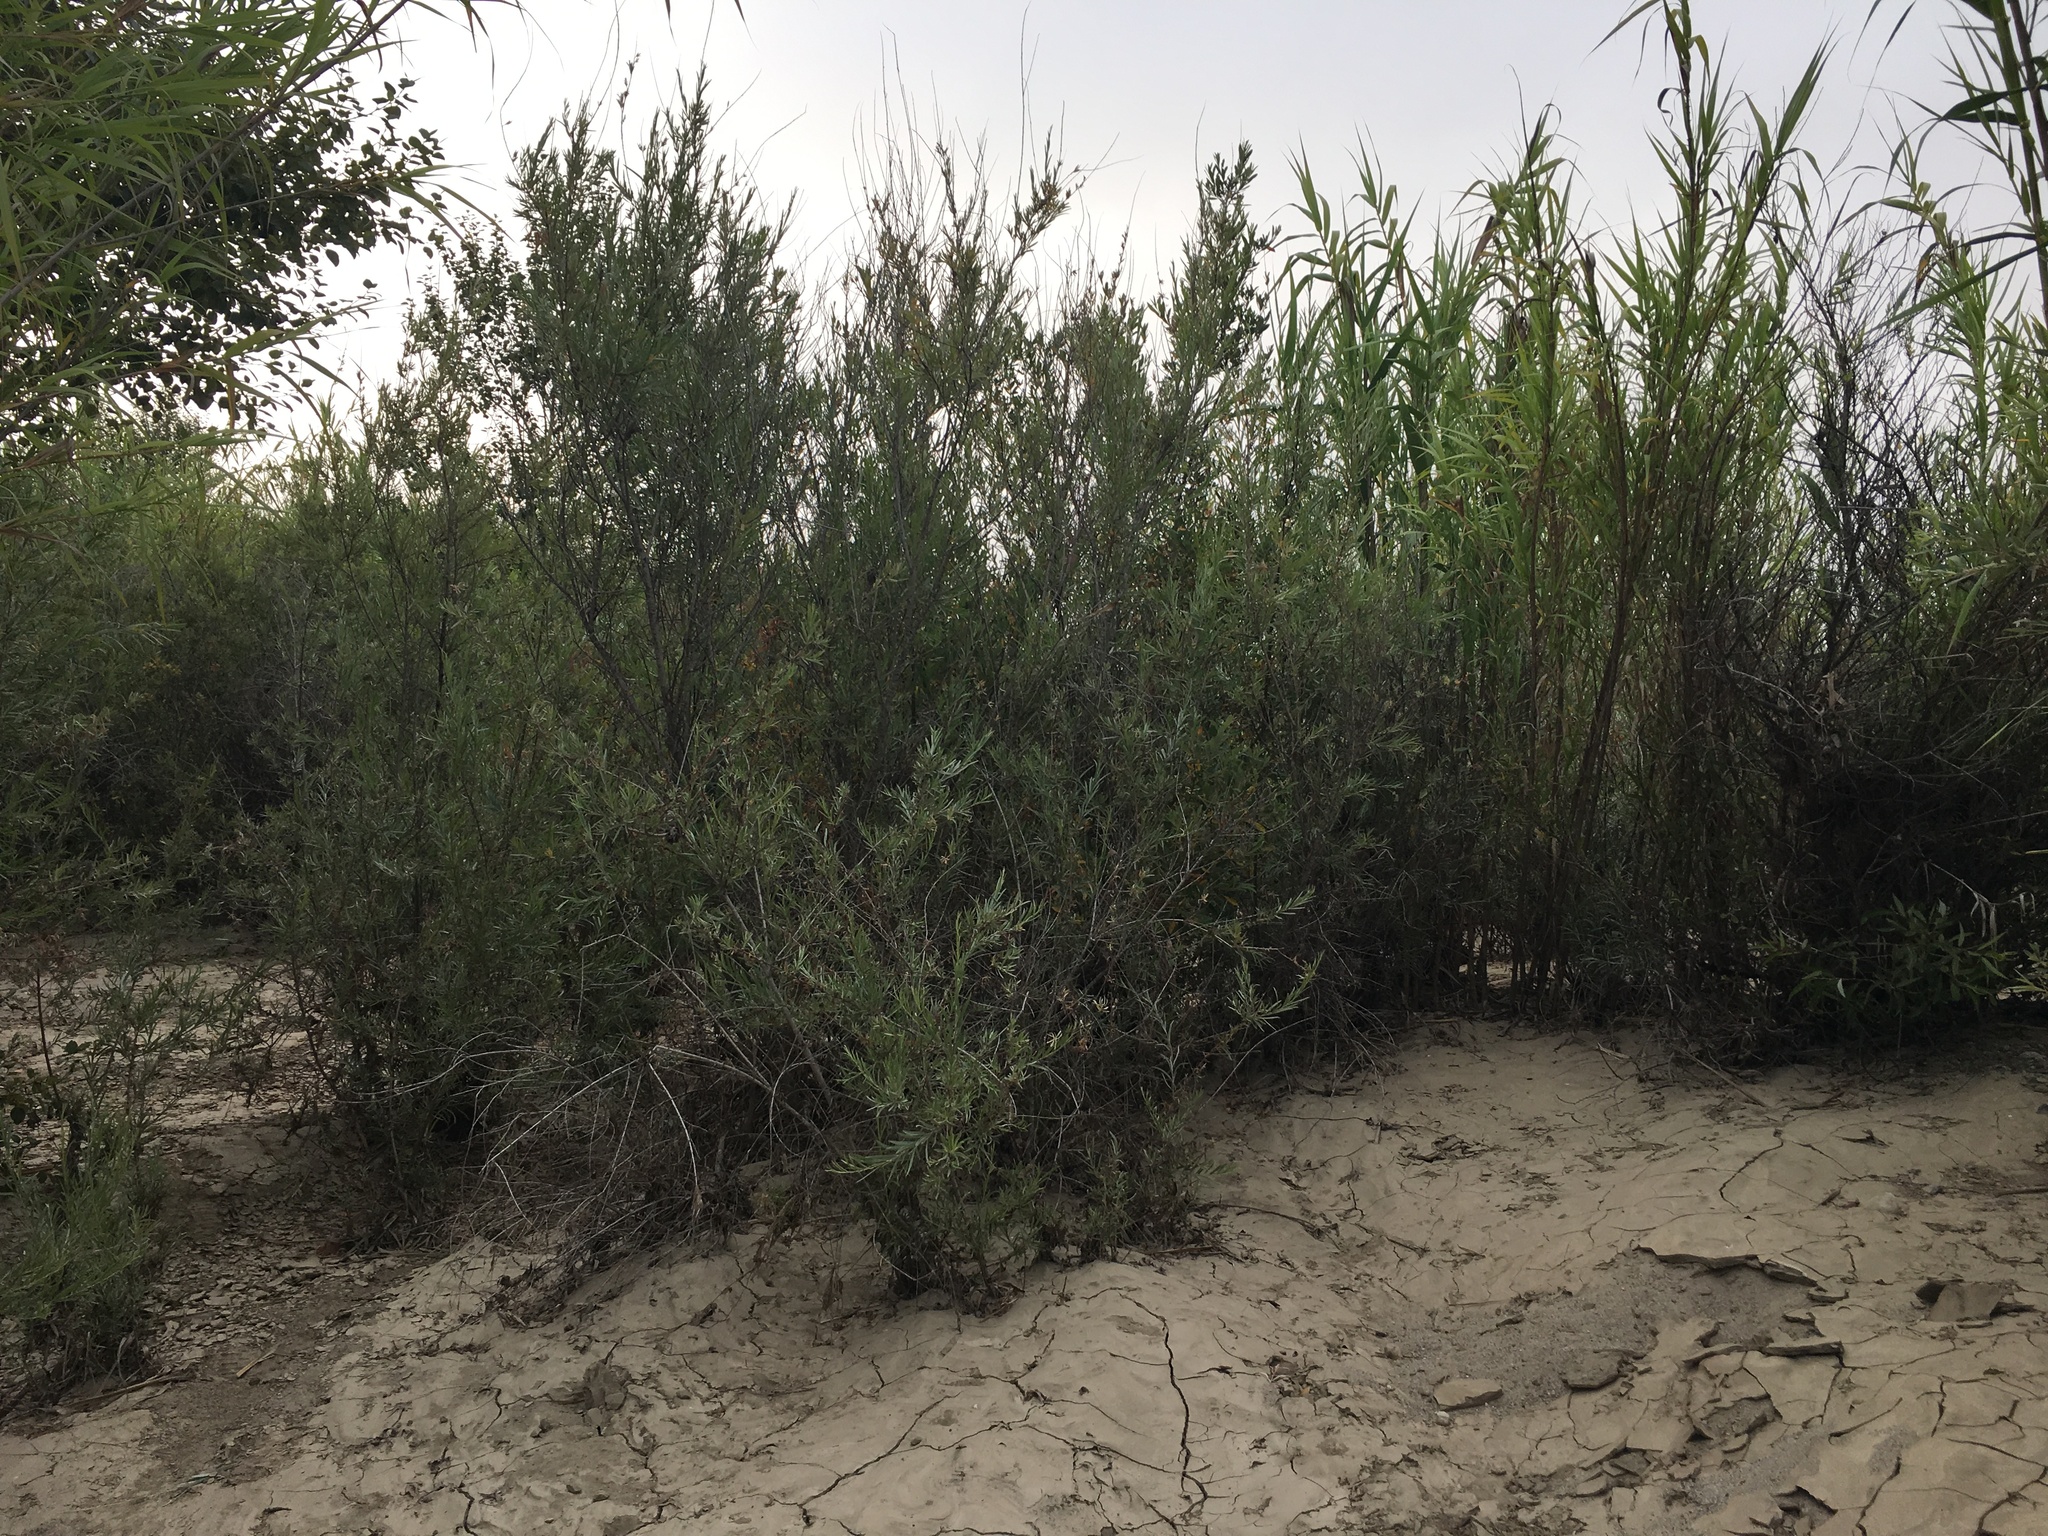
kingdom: Plantae
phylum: Tracheophyta
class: Liliopsida
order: Poales
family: Poaceae
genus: Arundo
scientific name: Arundo donax
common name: Giant reed
